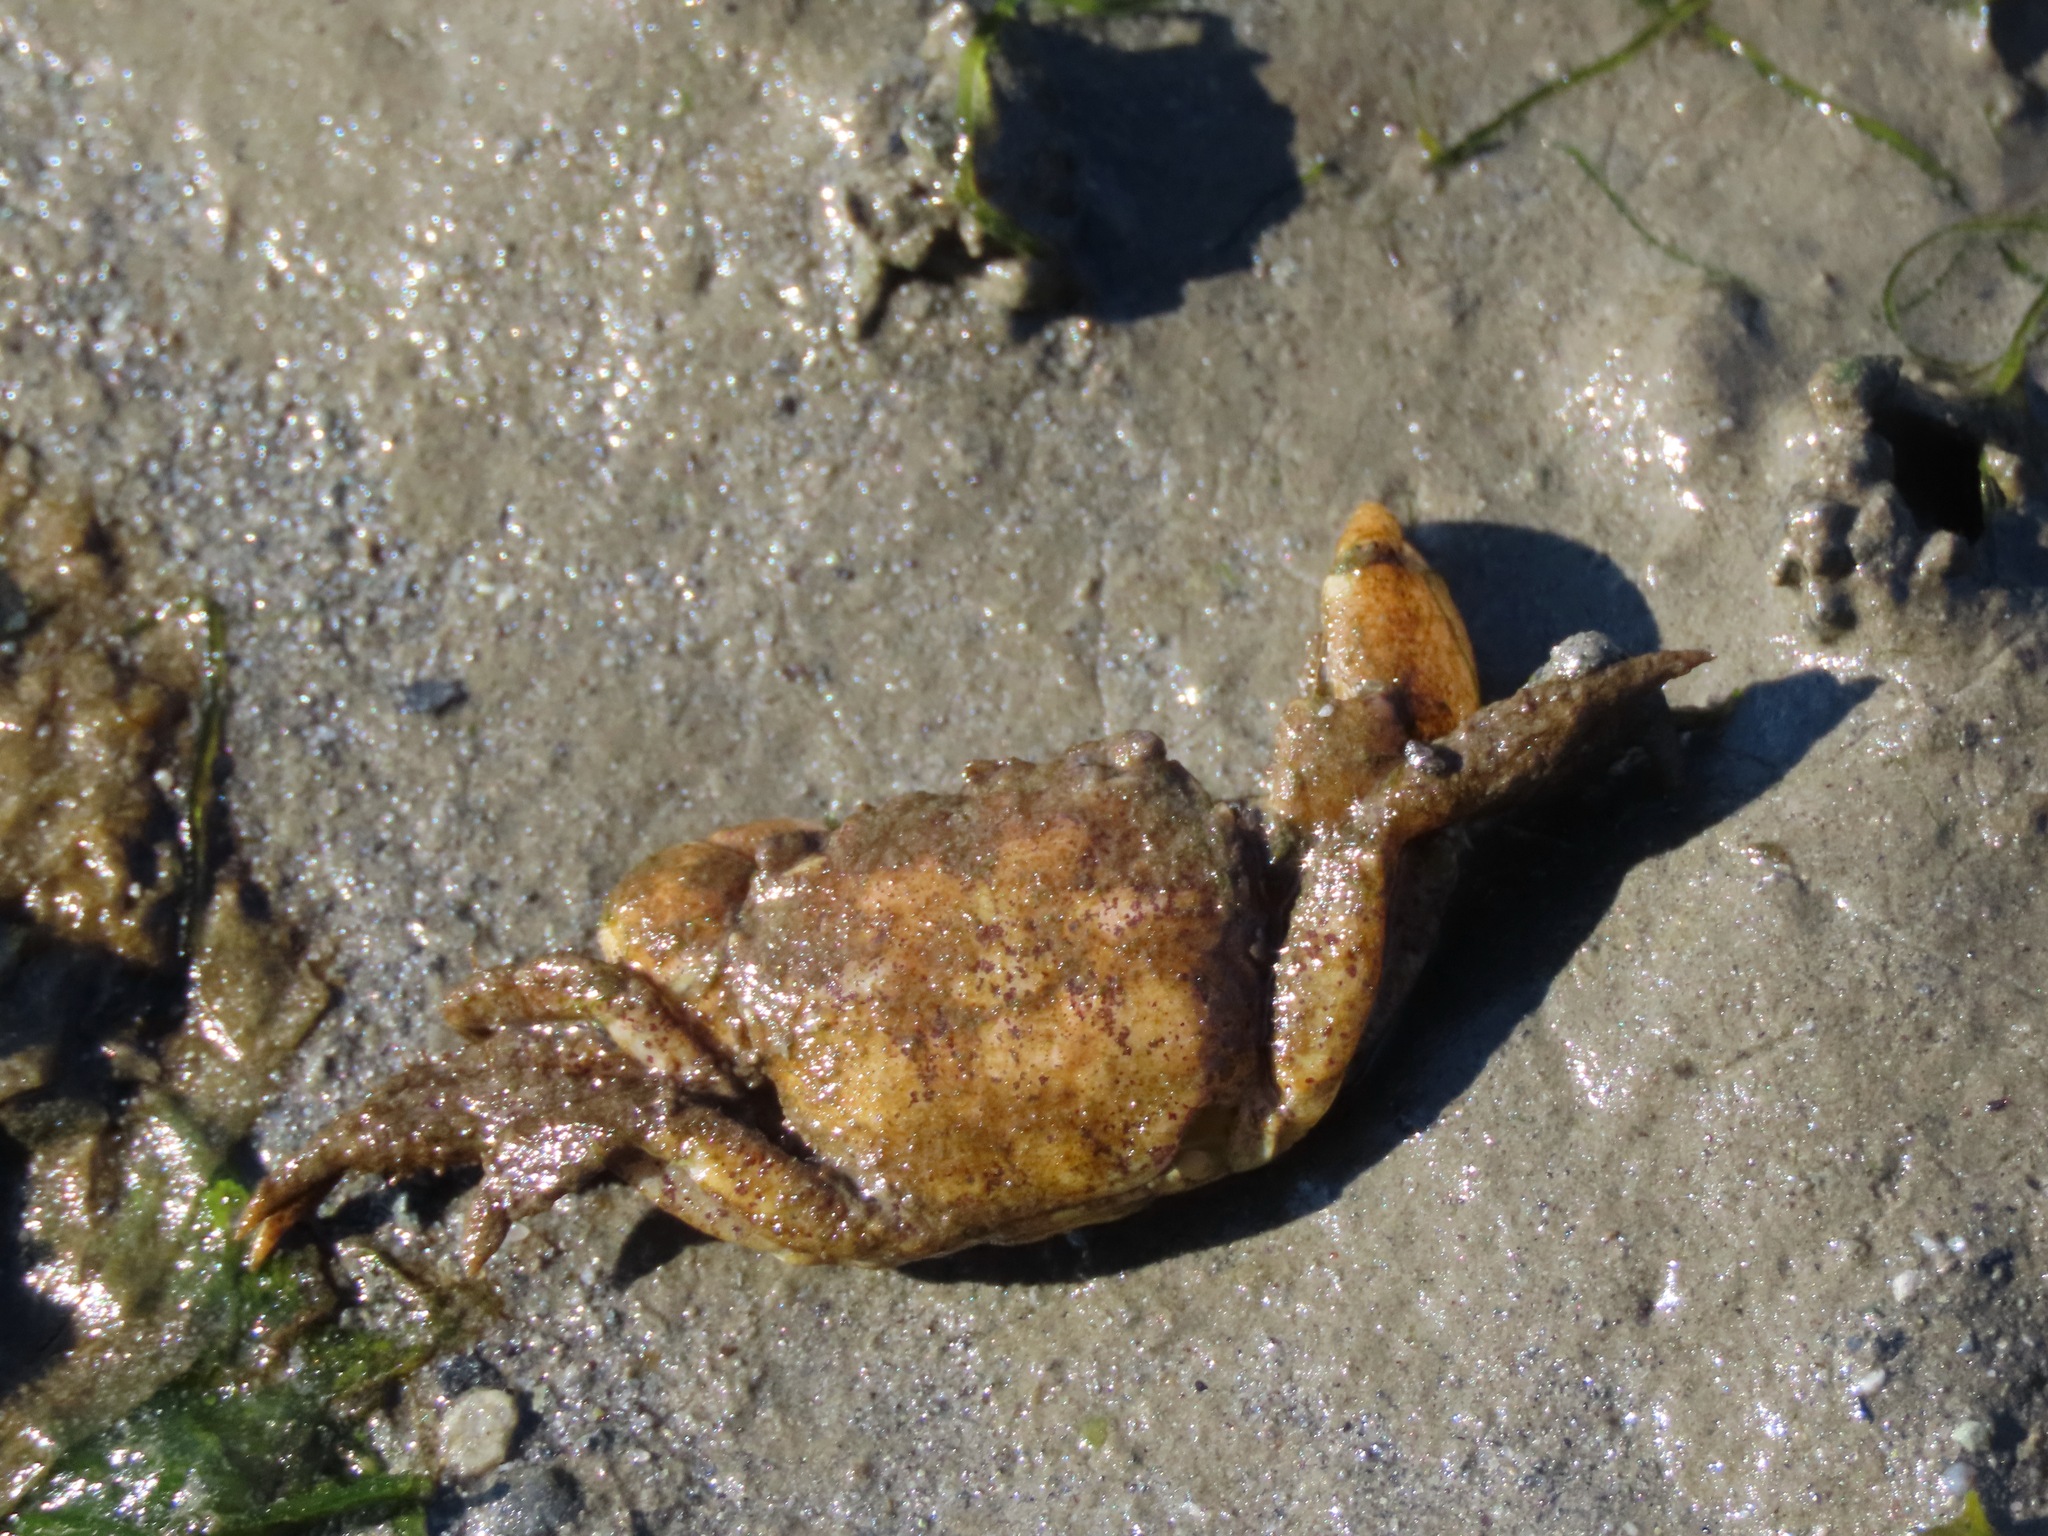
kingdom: Animalia
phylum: Arthropoda
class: Malacostraca
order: Decapoda
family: Varunidae
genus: Hemigrapsus
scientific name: Hemigrapsus oregonensis
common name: Yellow shore crab
